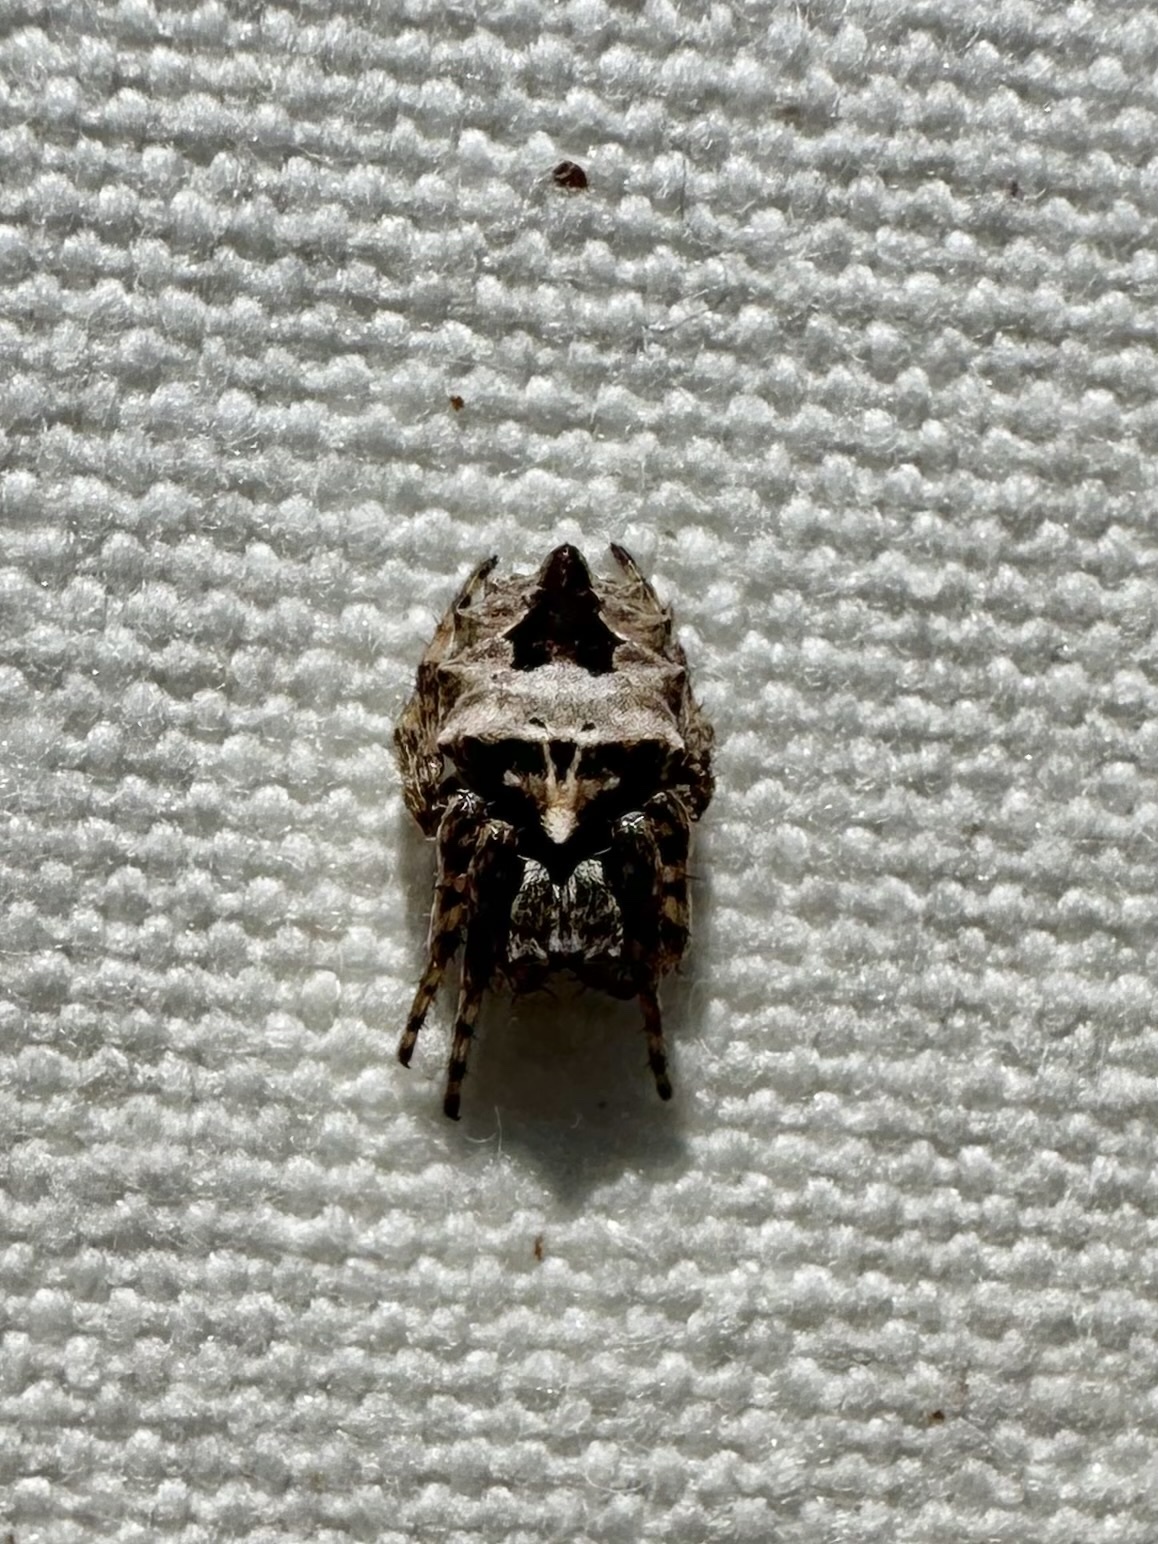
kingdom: Animalia
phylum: Arthropoda
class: Arachnida
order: Araneae
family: Araneidae
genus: Acanthepeira
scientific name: Acanthepeira stellata
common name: Starbellied orbweaver
